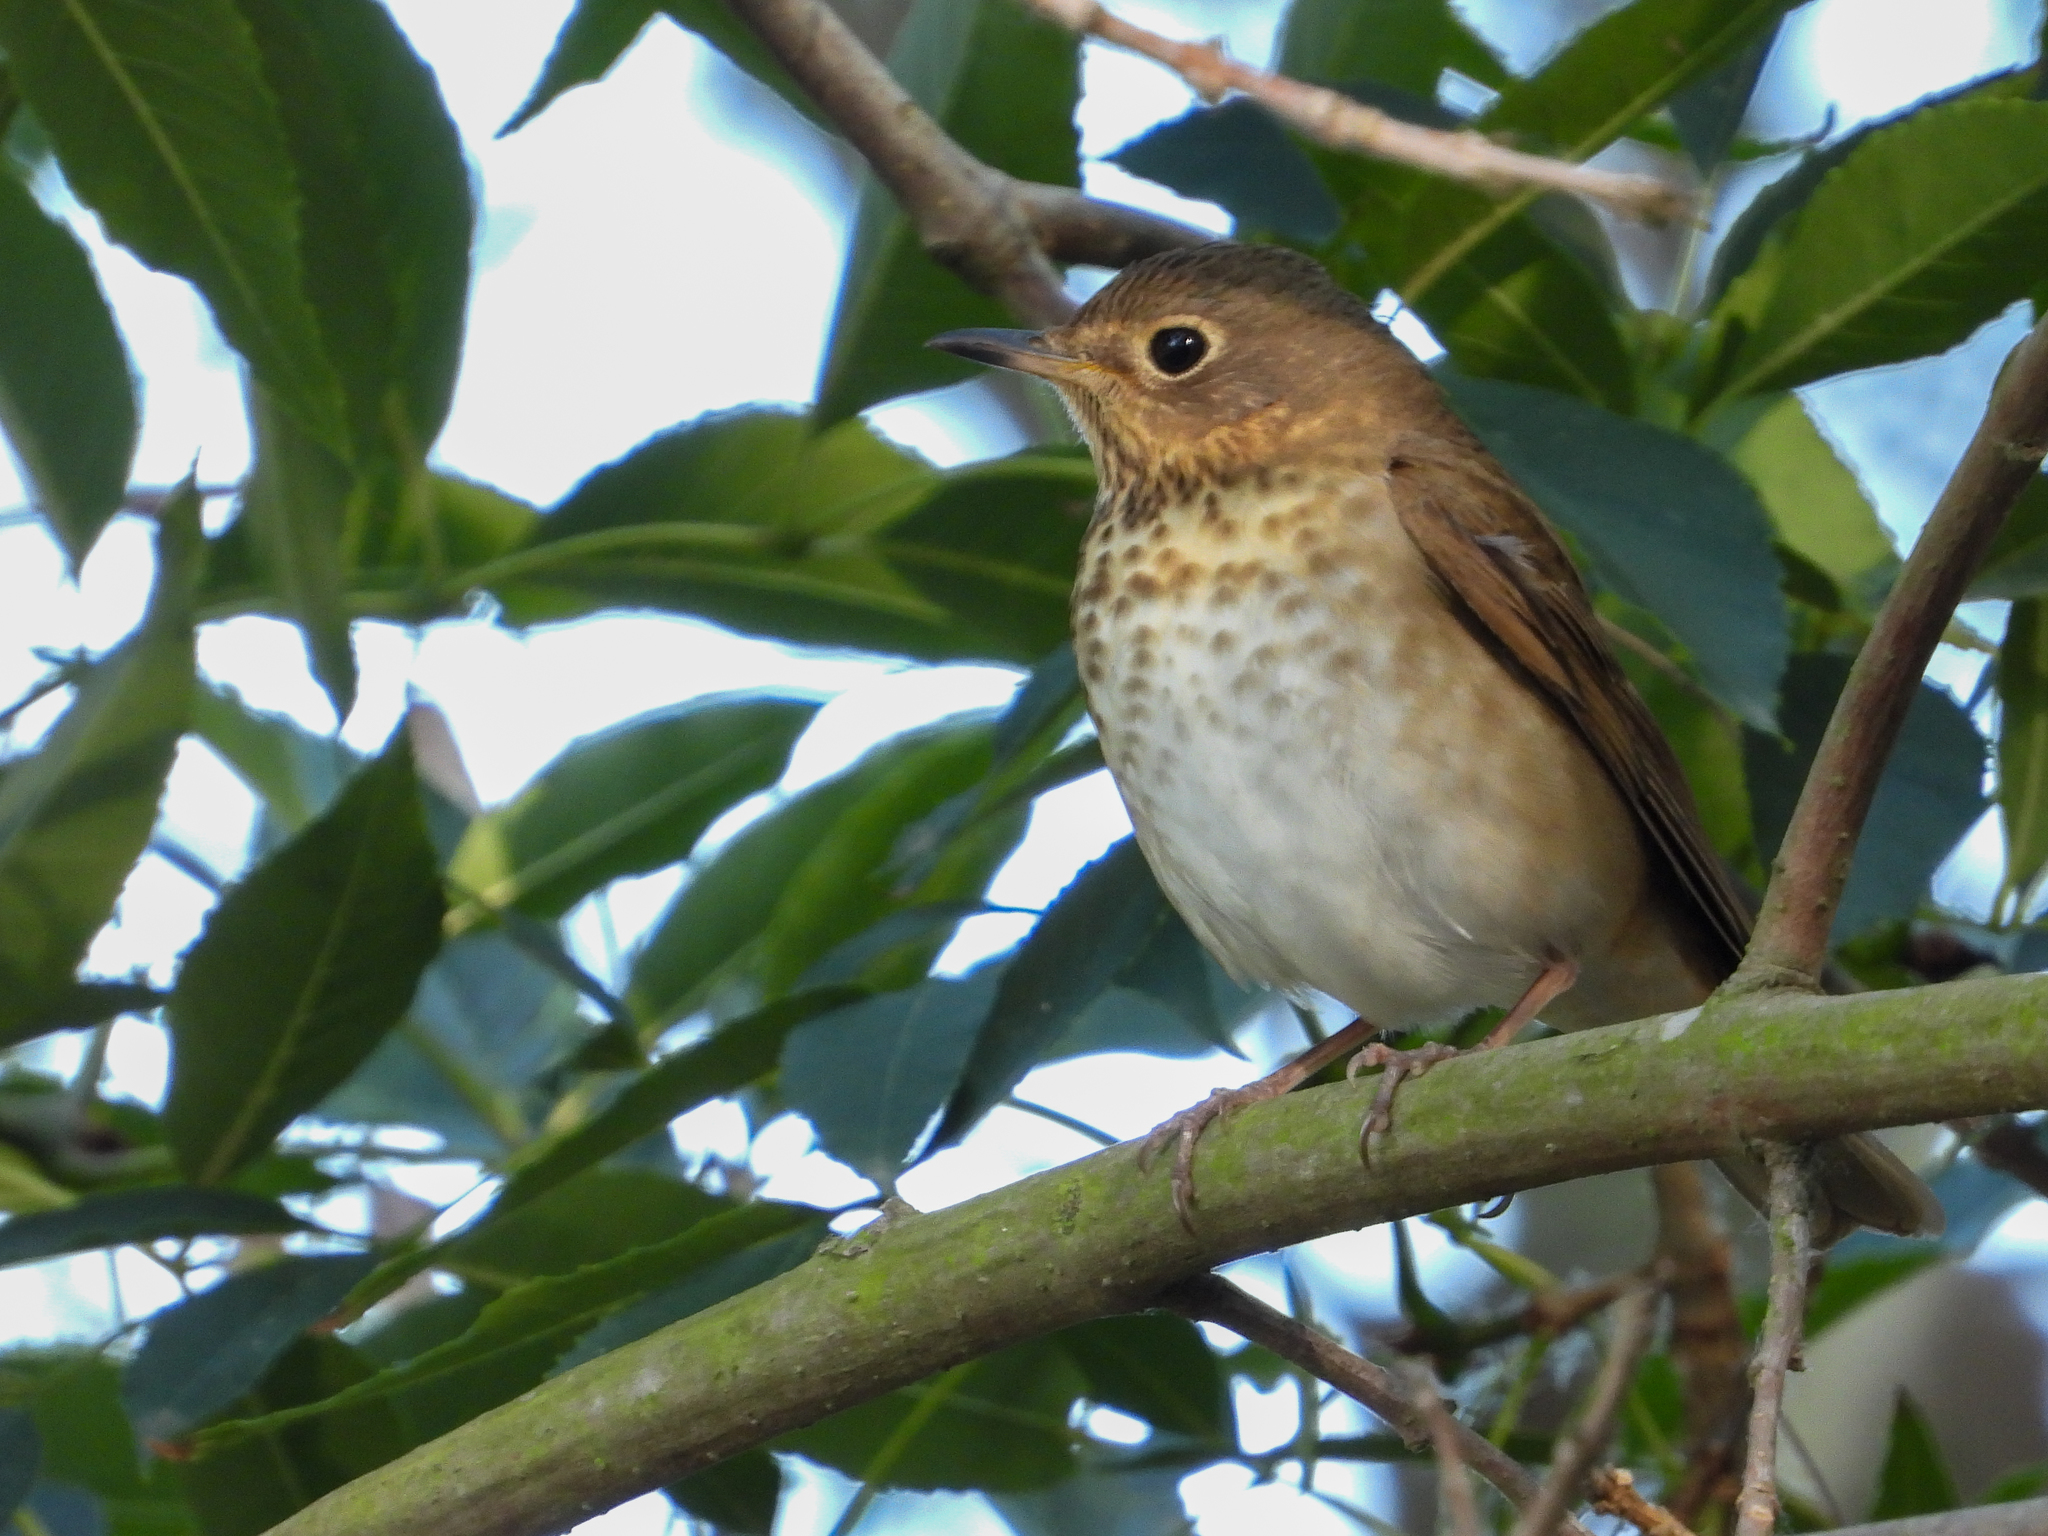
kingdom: Animalia
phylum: Chordata
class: Aves
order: Passeriformes
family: Turdidae
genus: Catharus
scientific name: Catharus ustulatus
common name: Swainson's thrush
